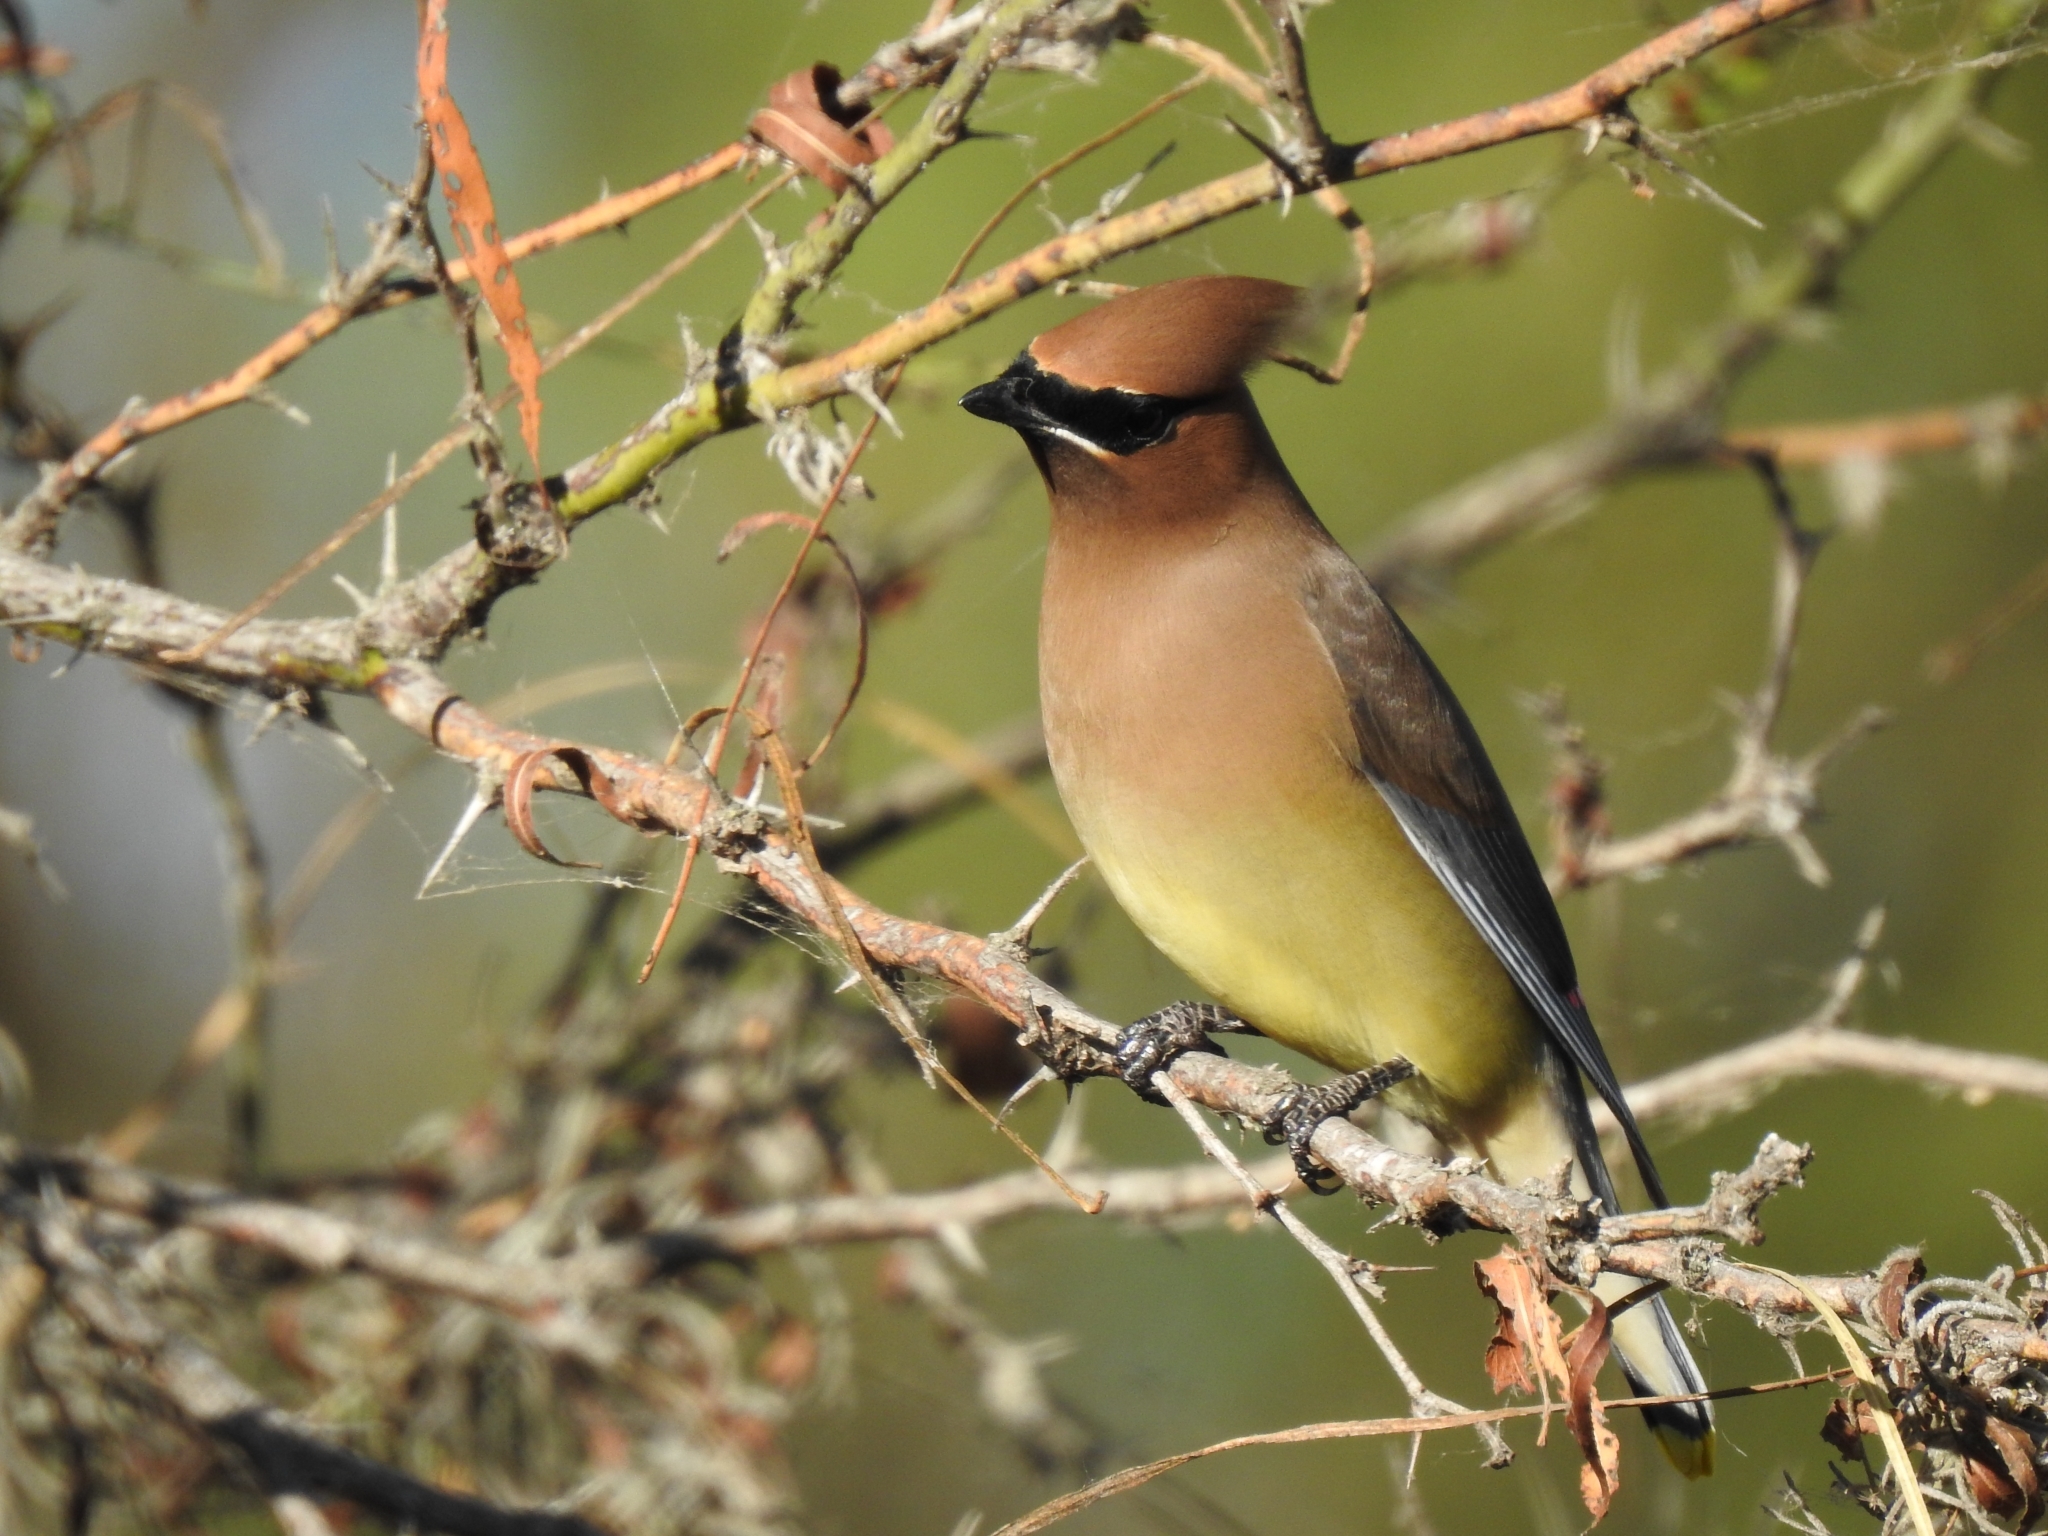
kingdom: Animalia
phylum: Chordata
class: Aves
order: Passeriformes
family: Bombycillidae
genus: Bombycilla
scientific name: Bombycilla cedrorum
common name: Cedar waxwing
